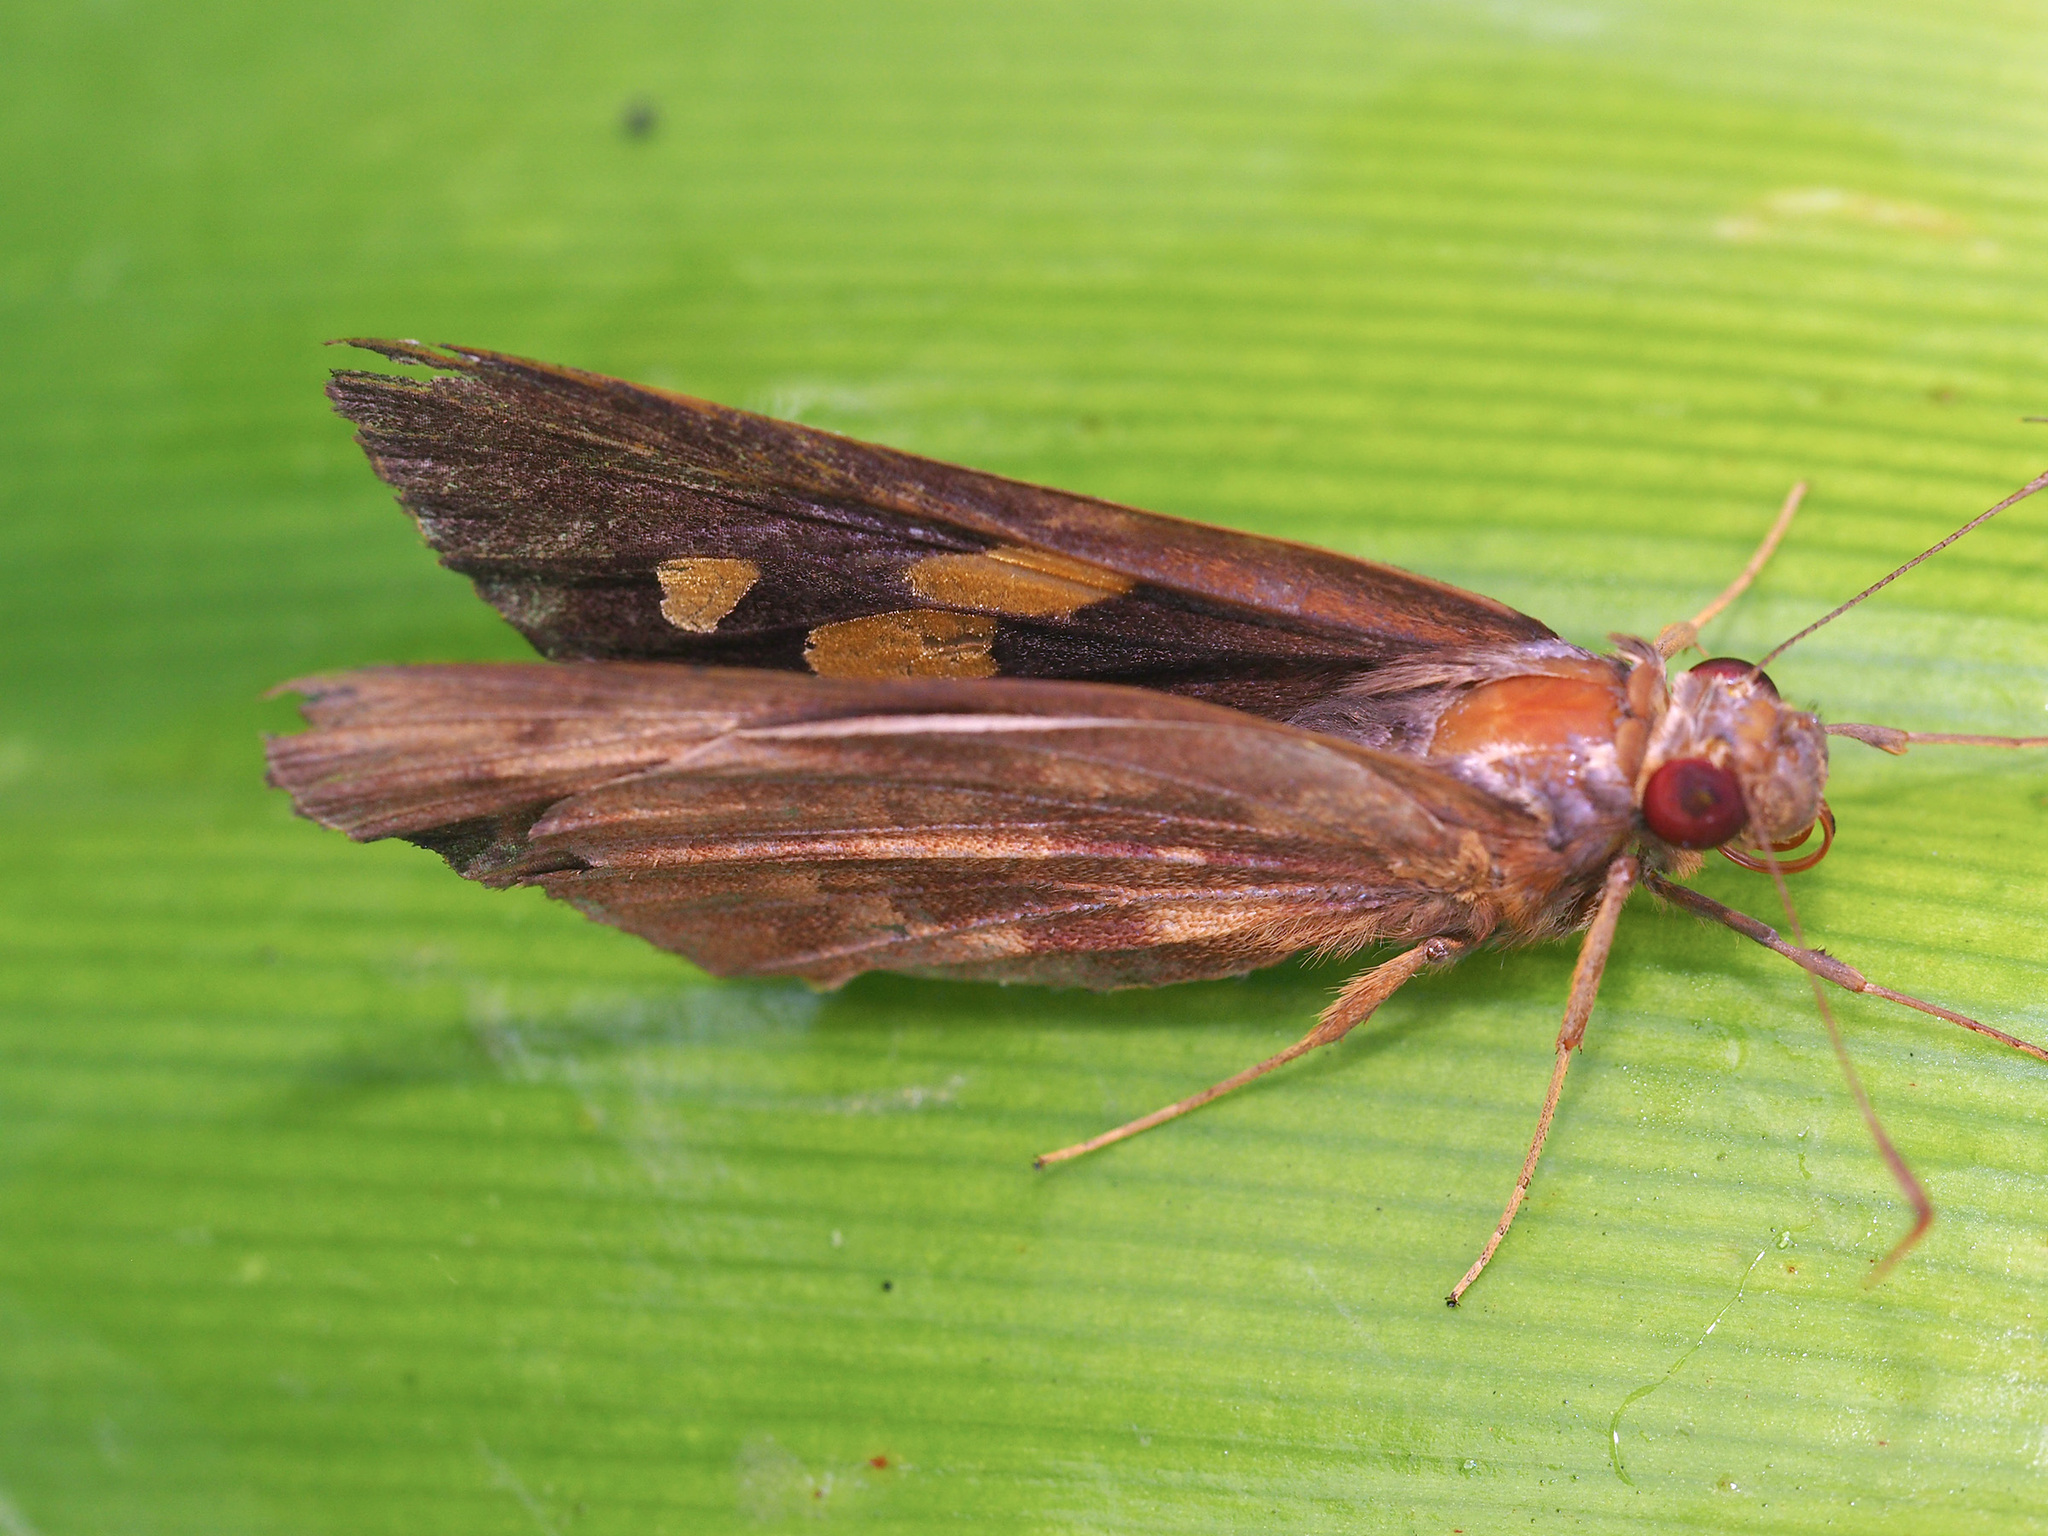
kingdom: Animalia
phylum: Arthropoda
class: Insecta
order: Lepidoptera
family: Hesperiidae
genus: Erionota
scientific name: Erionota hislopi
